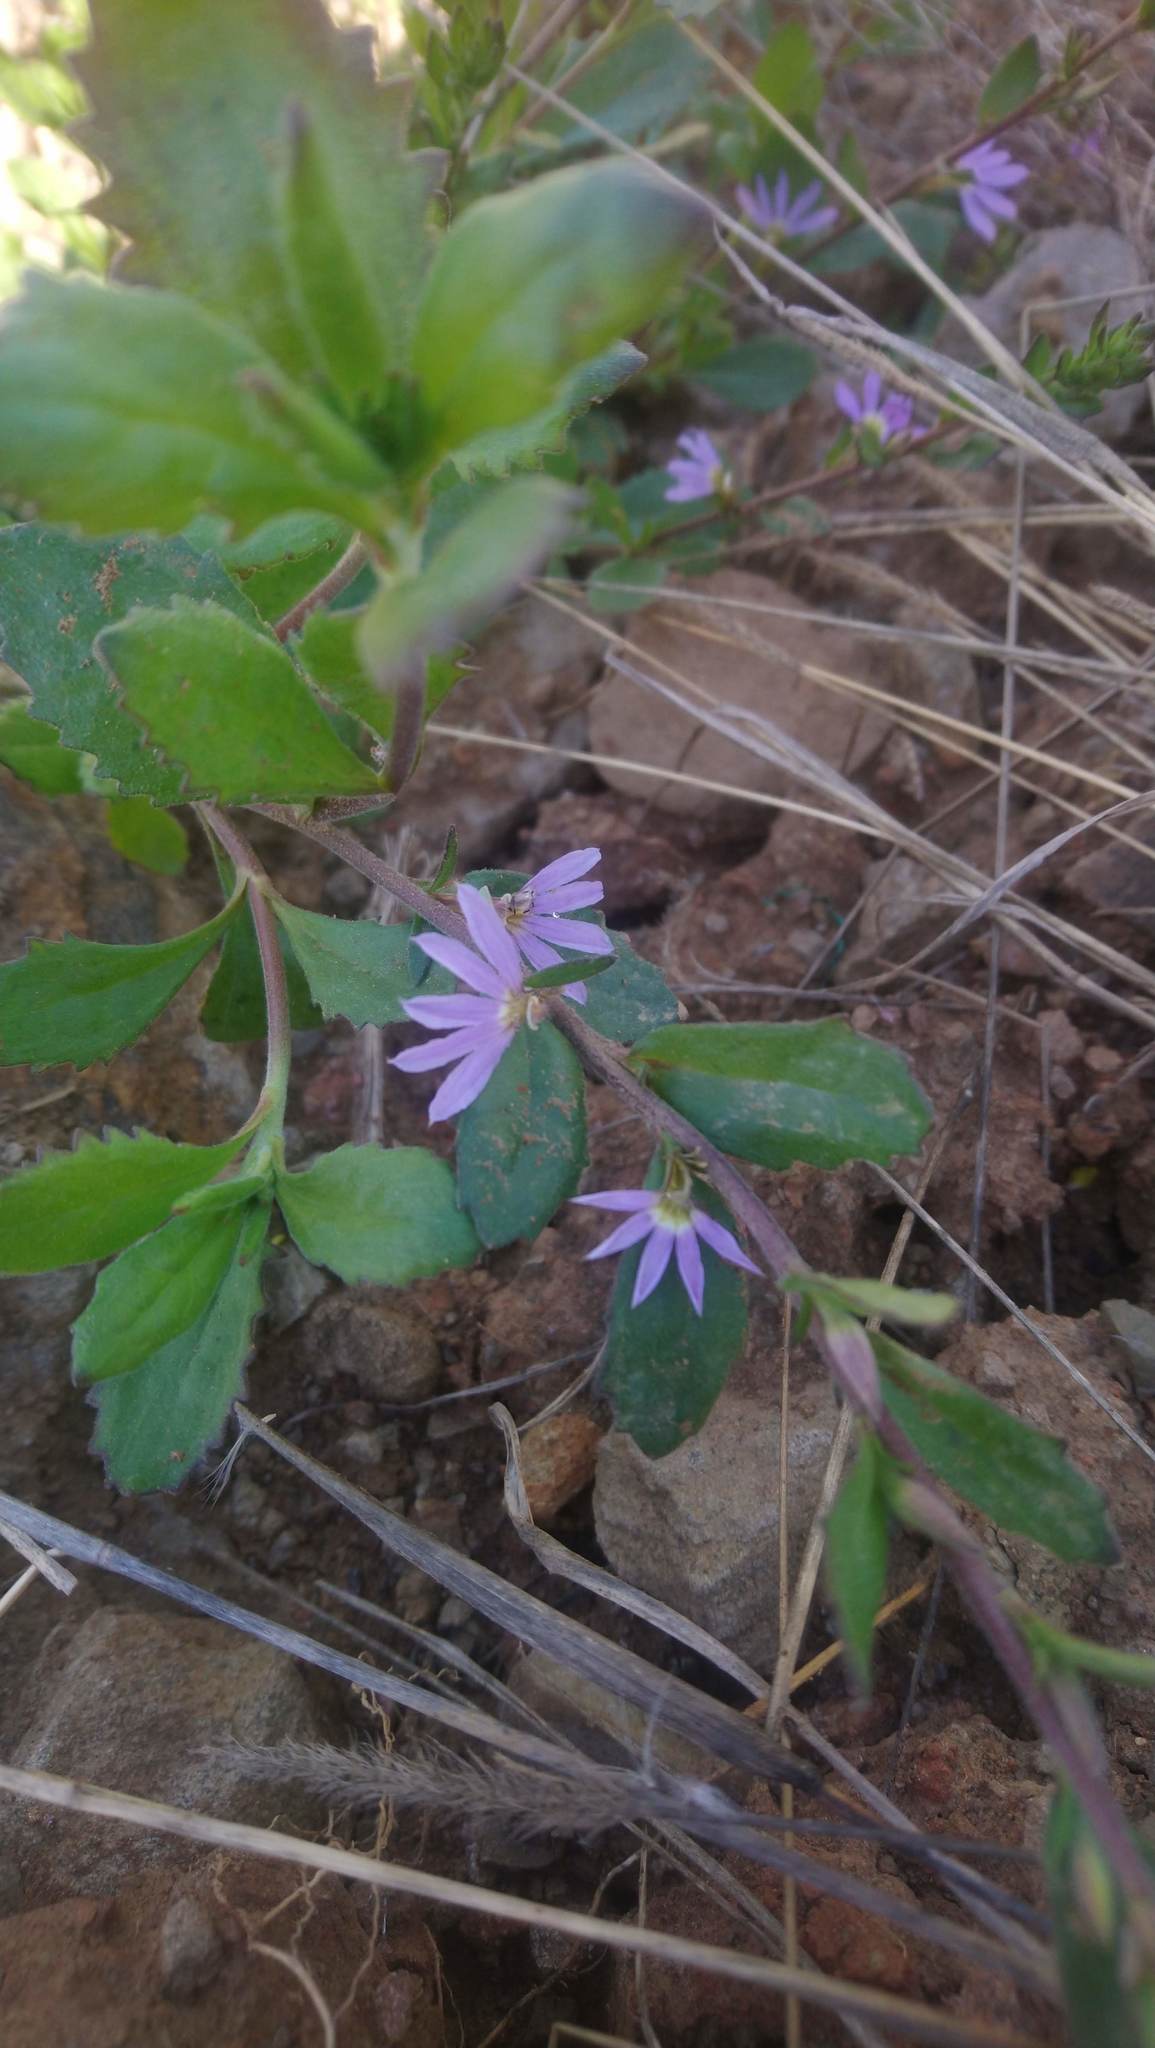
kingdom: Plantae
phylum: Tracheophyta
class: Magnoliopsida
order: Asterales
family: Goodeniaceae
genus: Scaevola
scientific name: Scaevola albida
